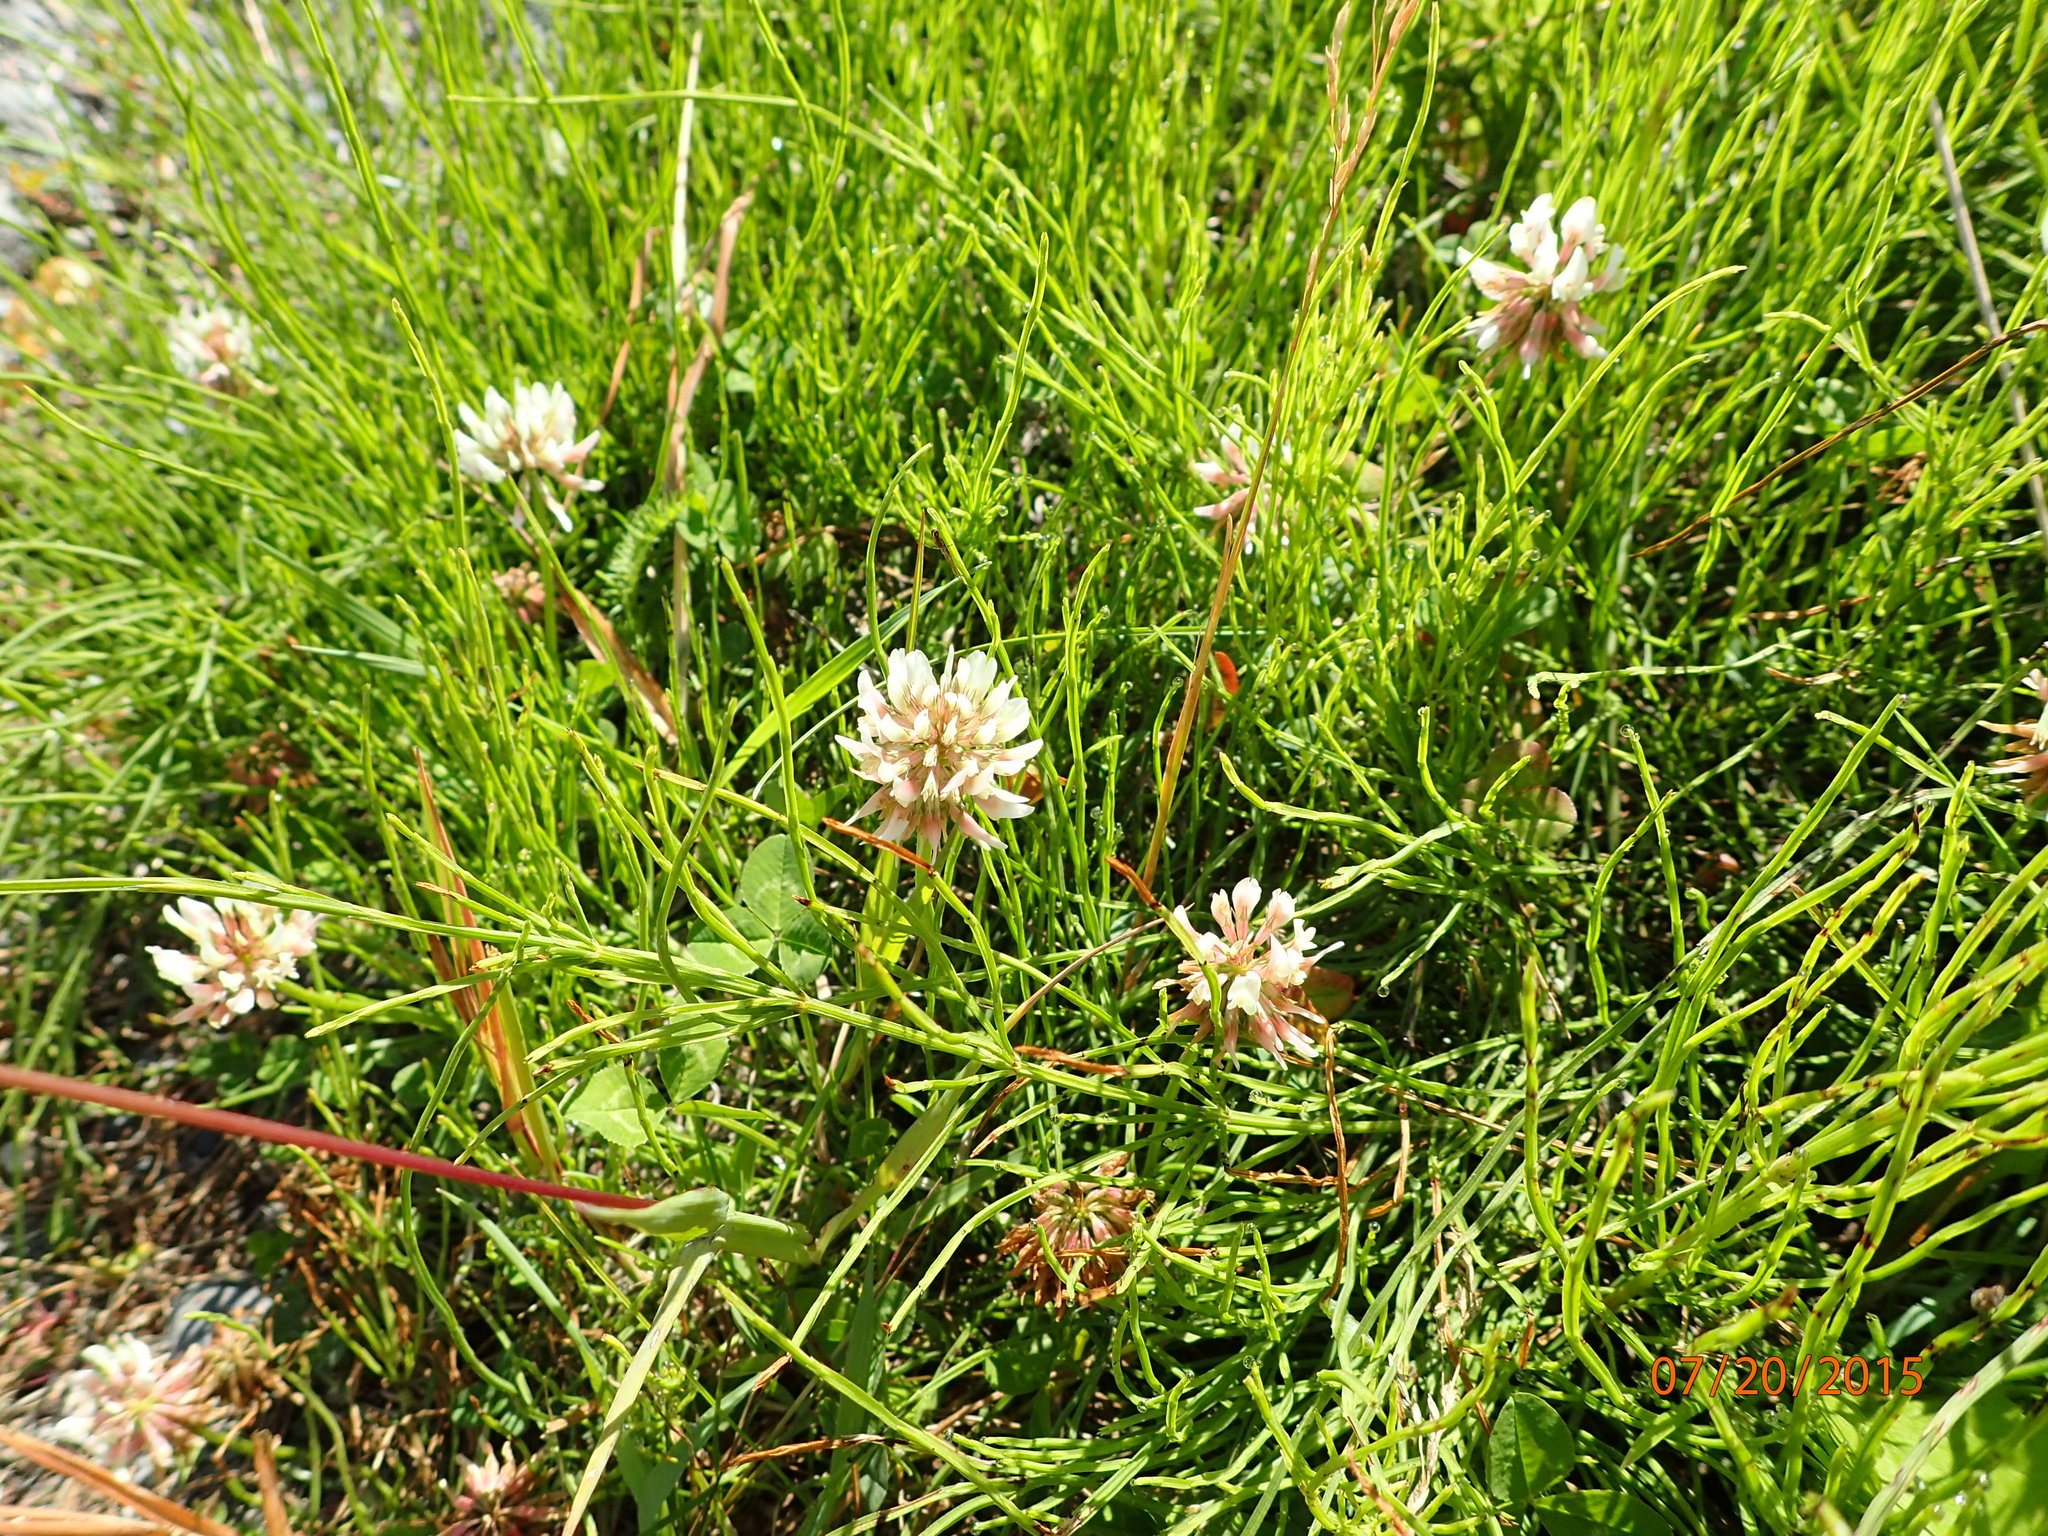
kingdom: Plantae
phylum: Tracheophyta
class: Magnoliopsida
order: Fabales
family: Fabaceae
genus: Trifolium
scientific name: Trifolium repens
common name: White clover
